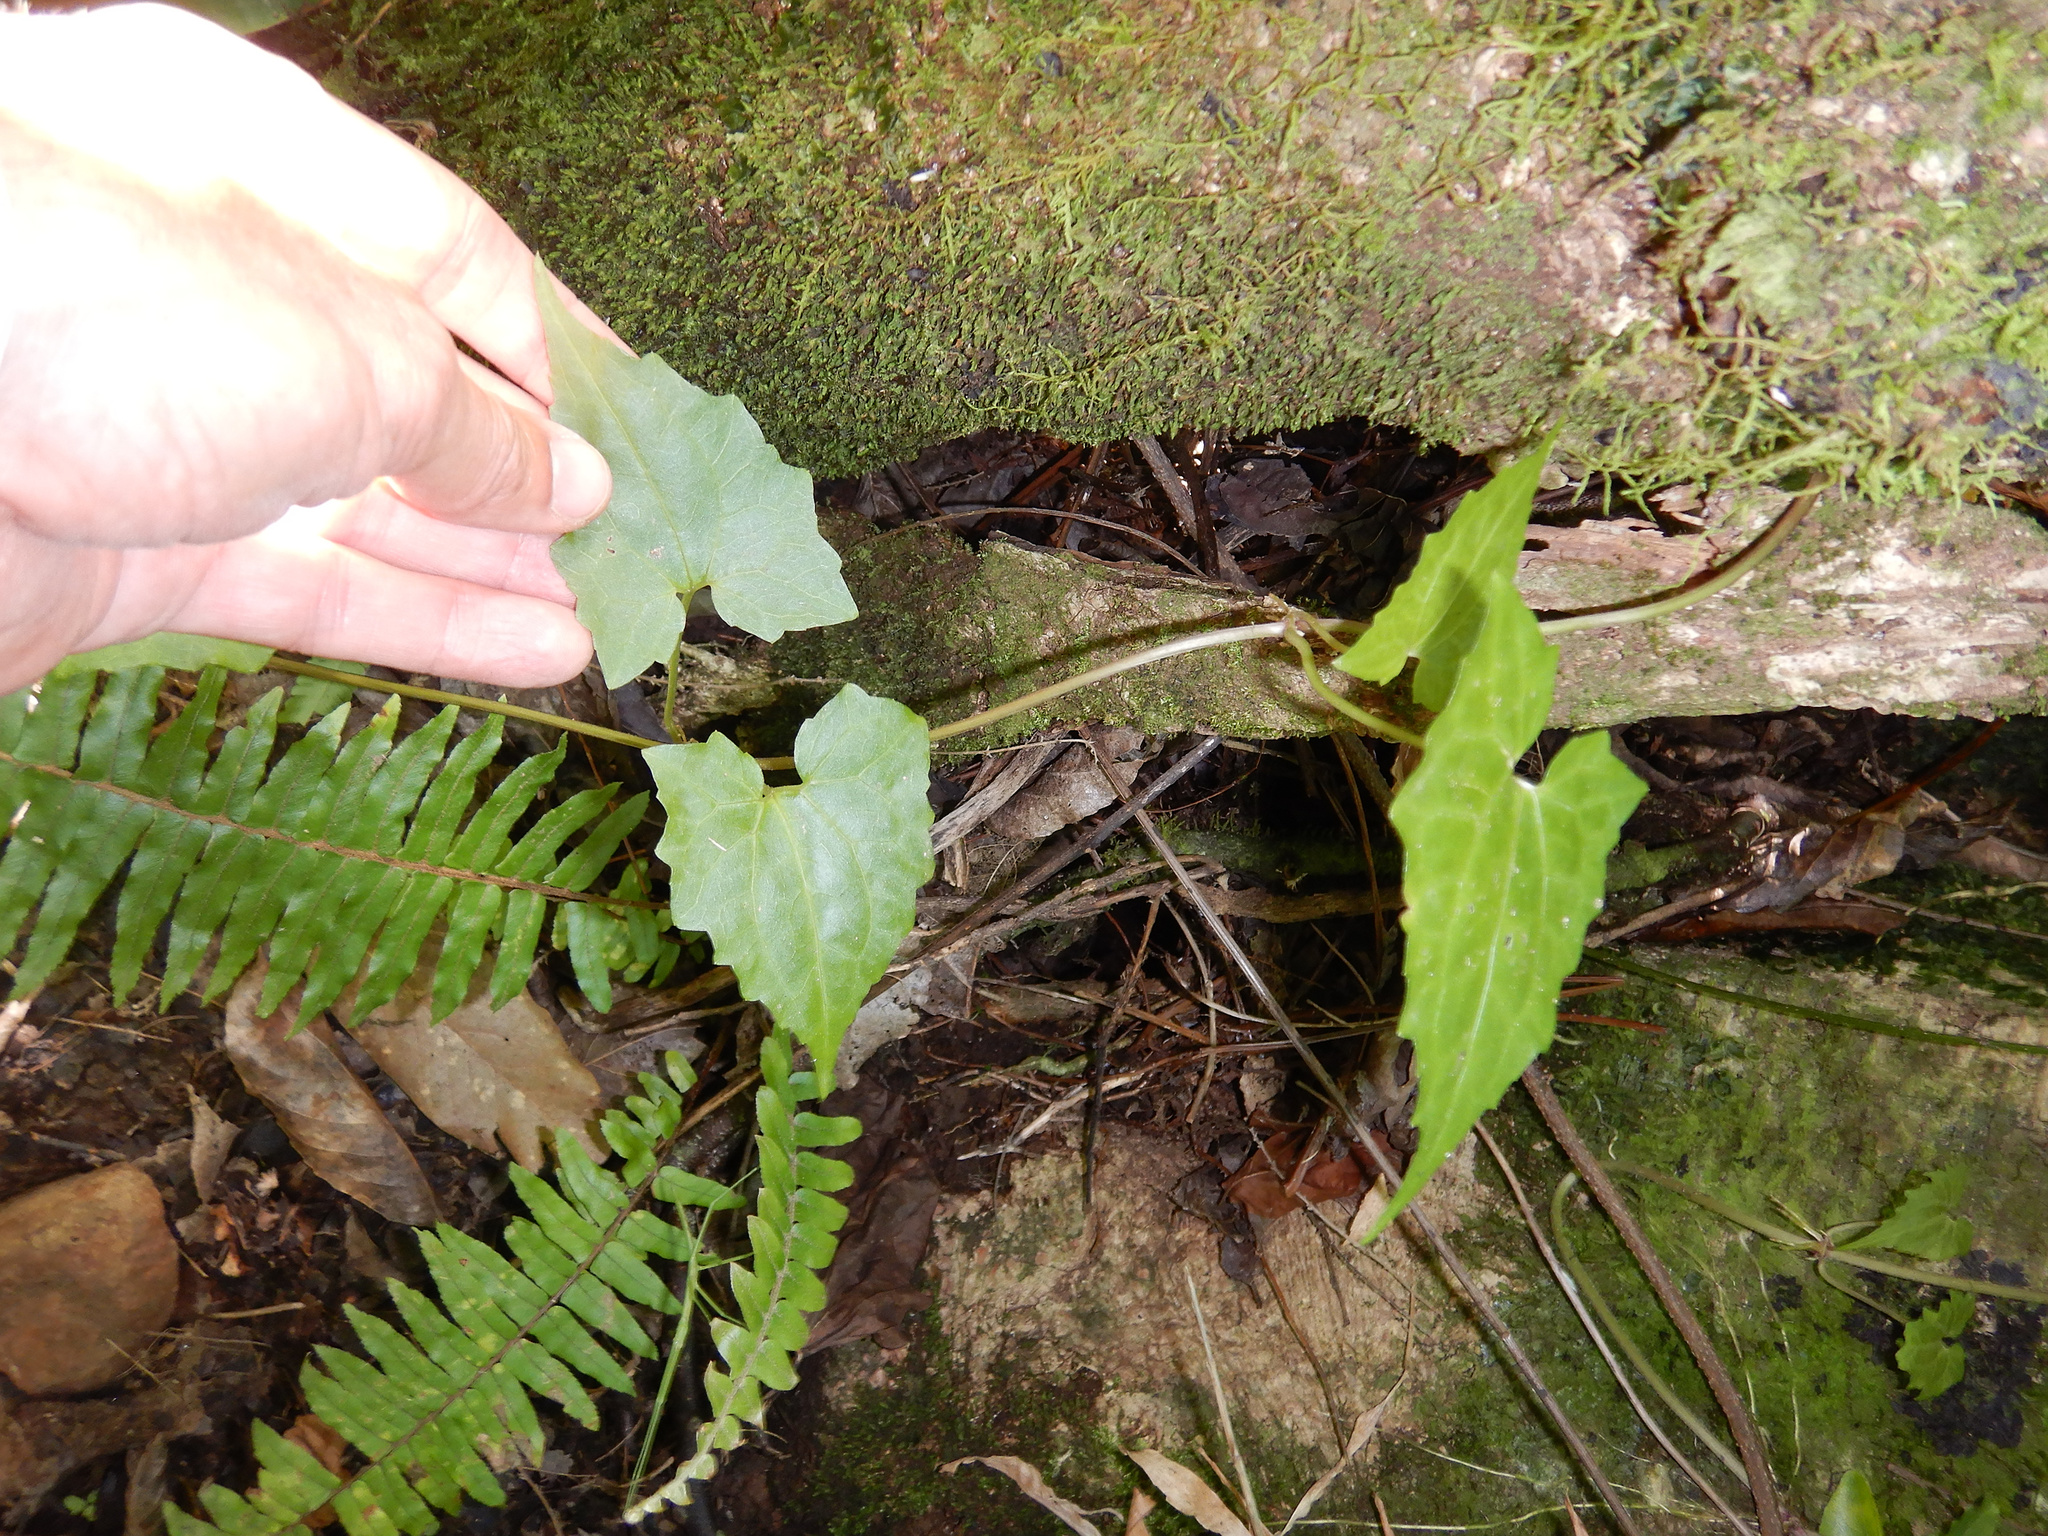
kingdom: Plantae
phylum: Tracheophyta
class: Magnoliopsida
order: Asterales
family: Asteraceae
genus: Mikania
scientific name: Mikania micrantha
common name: Mile-a-minute
